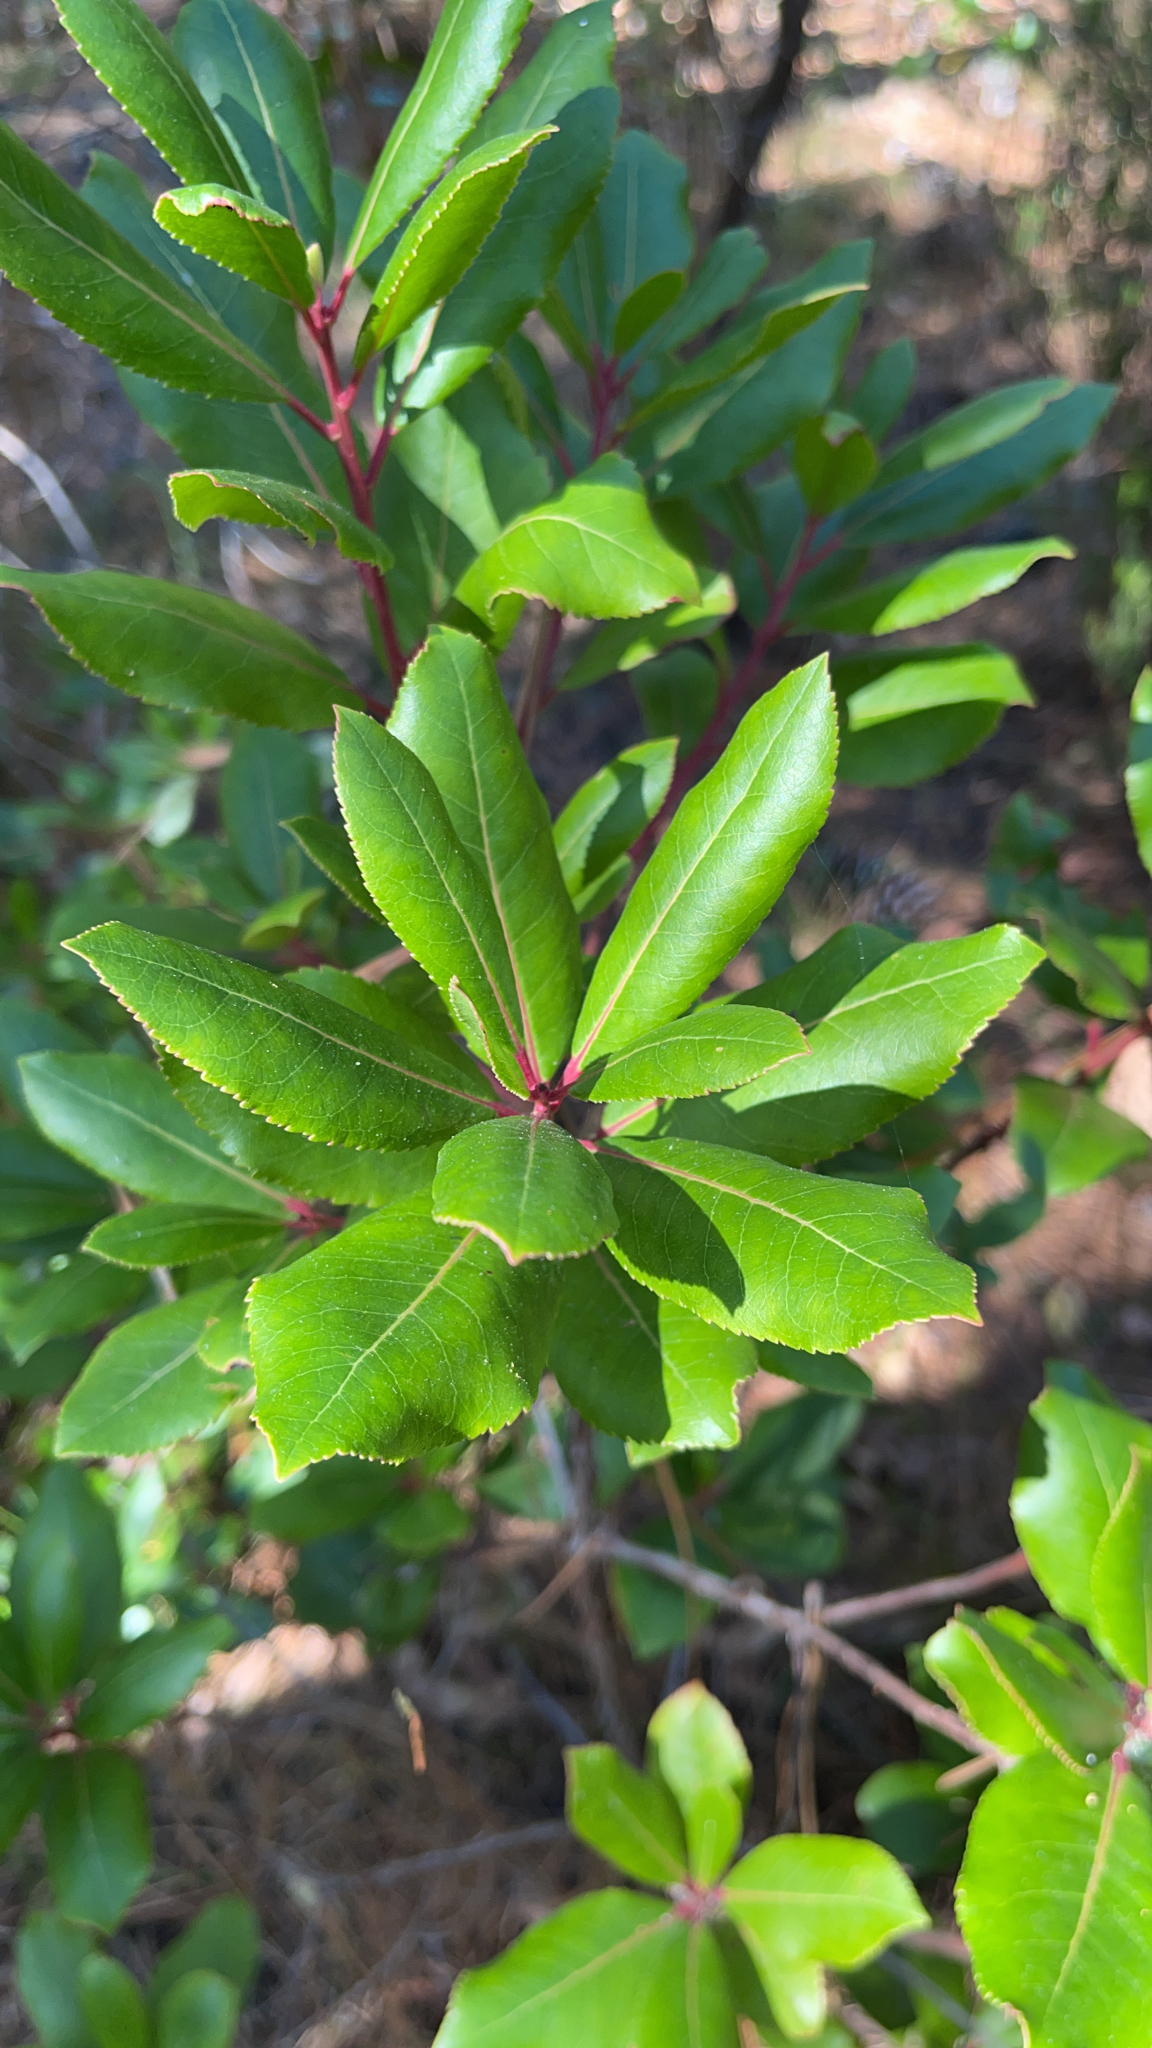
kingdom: Plantae
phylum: Tracheophyta
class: Magnoliopsida
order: Ericales
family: Ericaceae
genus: Arbutus
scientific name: Arbutus unedo
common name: Strawberry-tree
